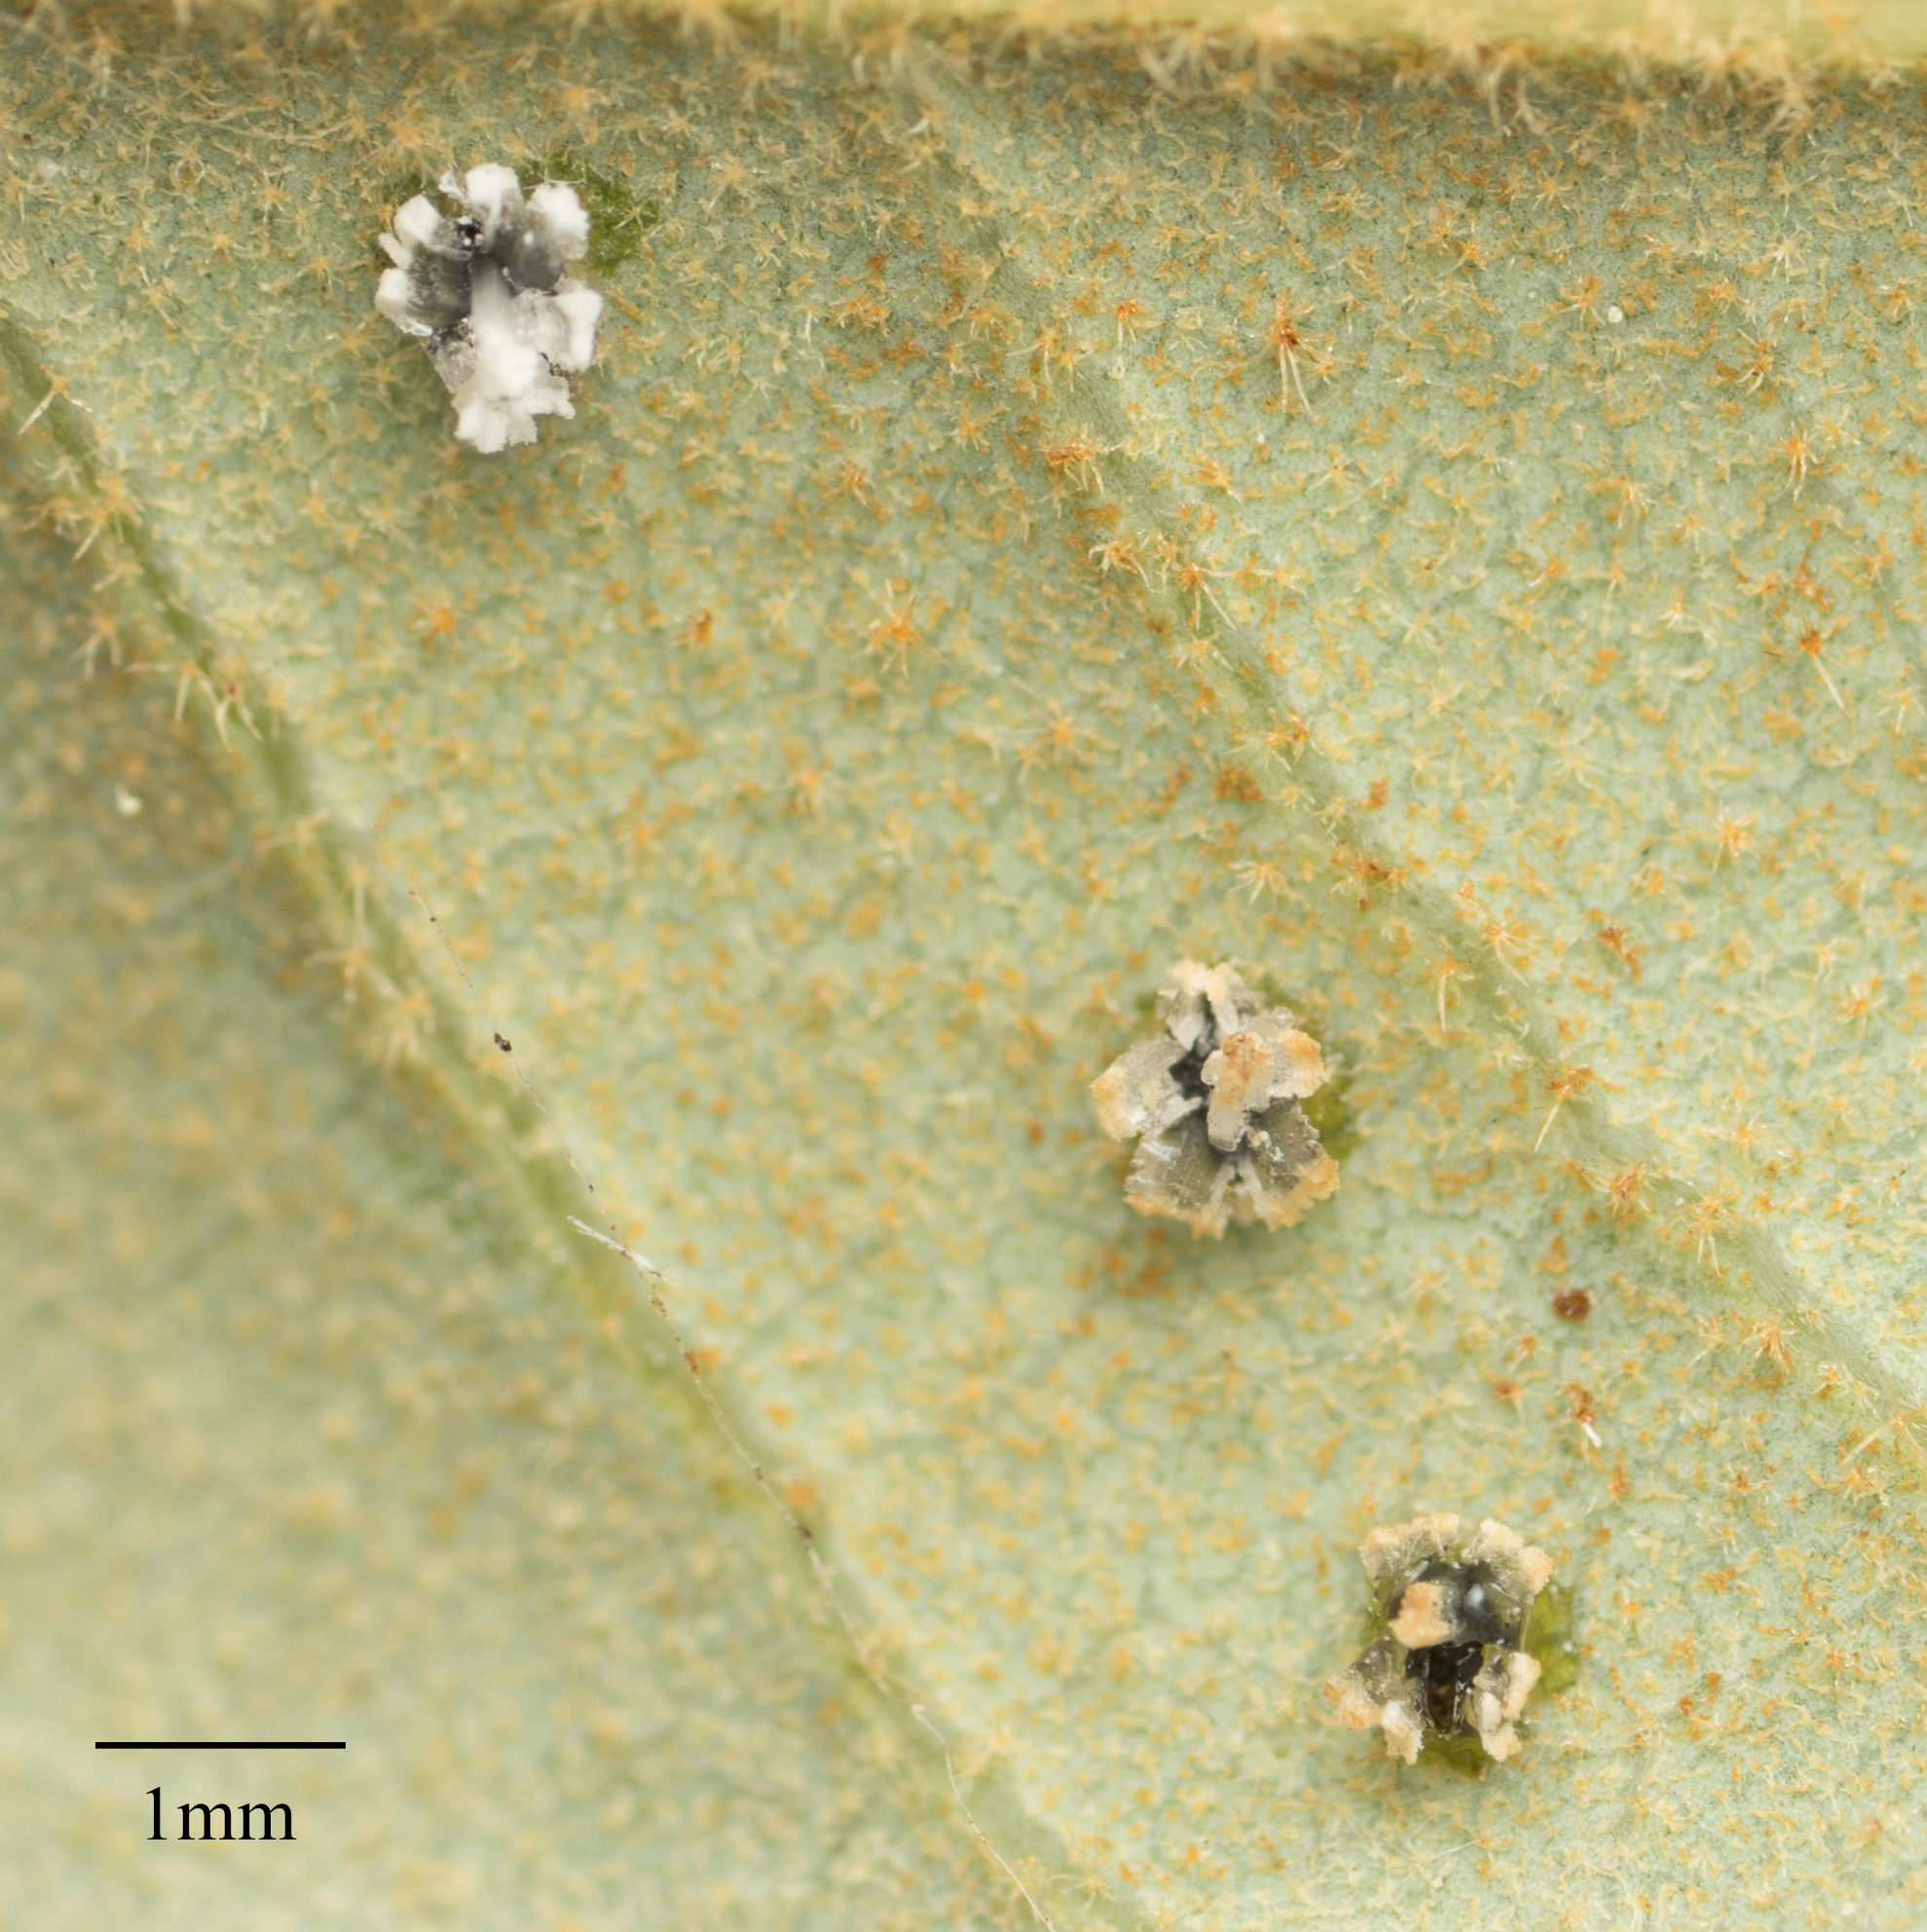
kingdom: Animalia
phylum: Arthropoda
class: Insecta
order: Hemiptera
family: Aleyrodidae
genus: Aleuroplatus
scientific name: Aleuroplatus coronata
